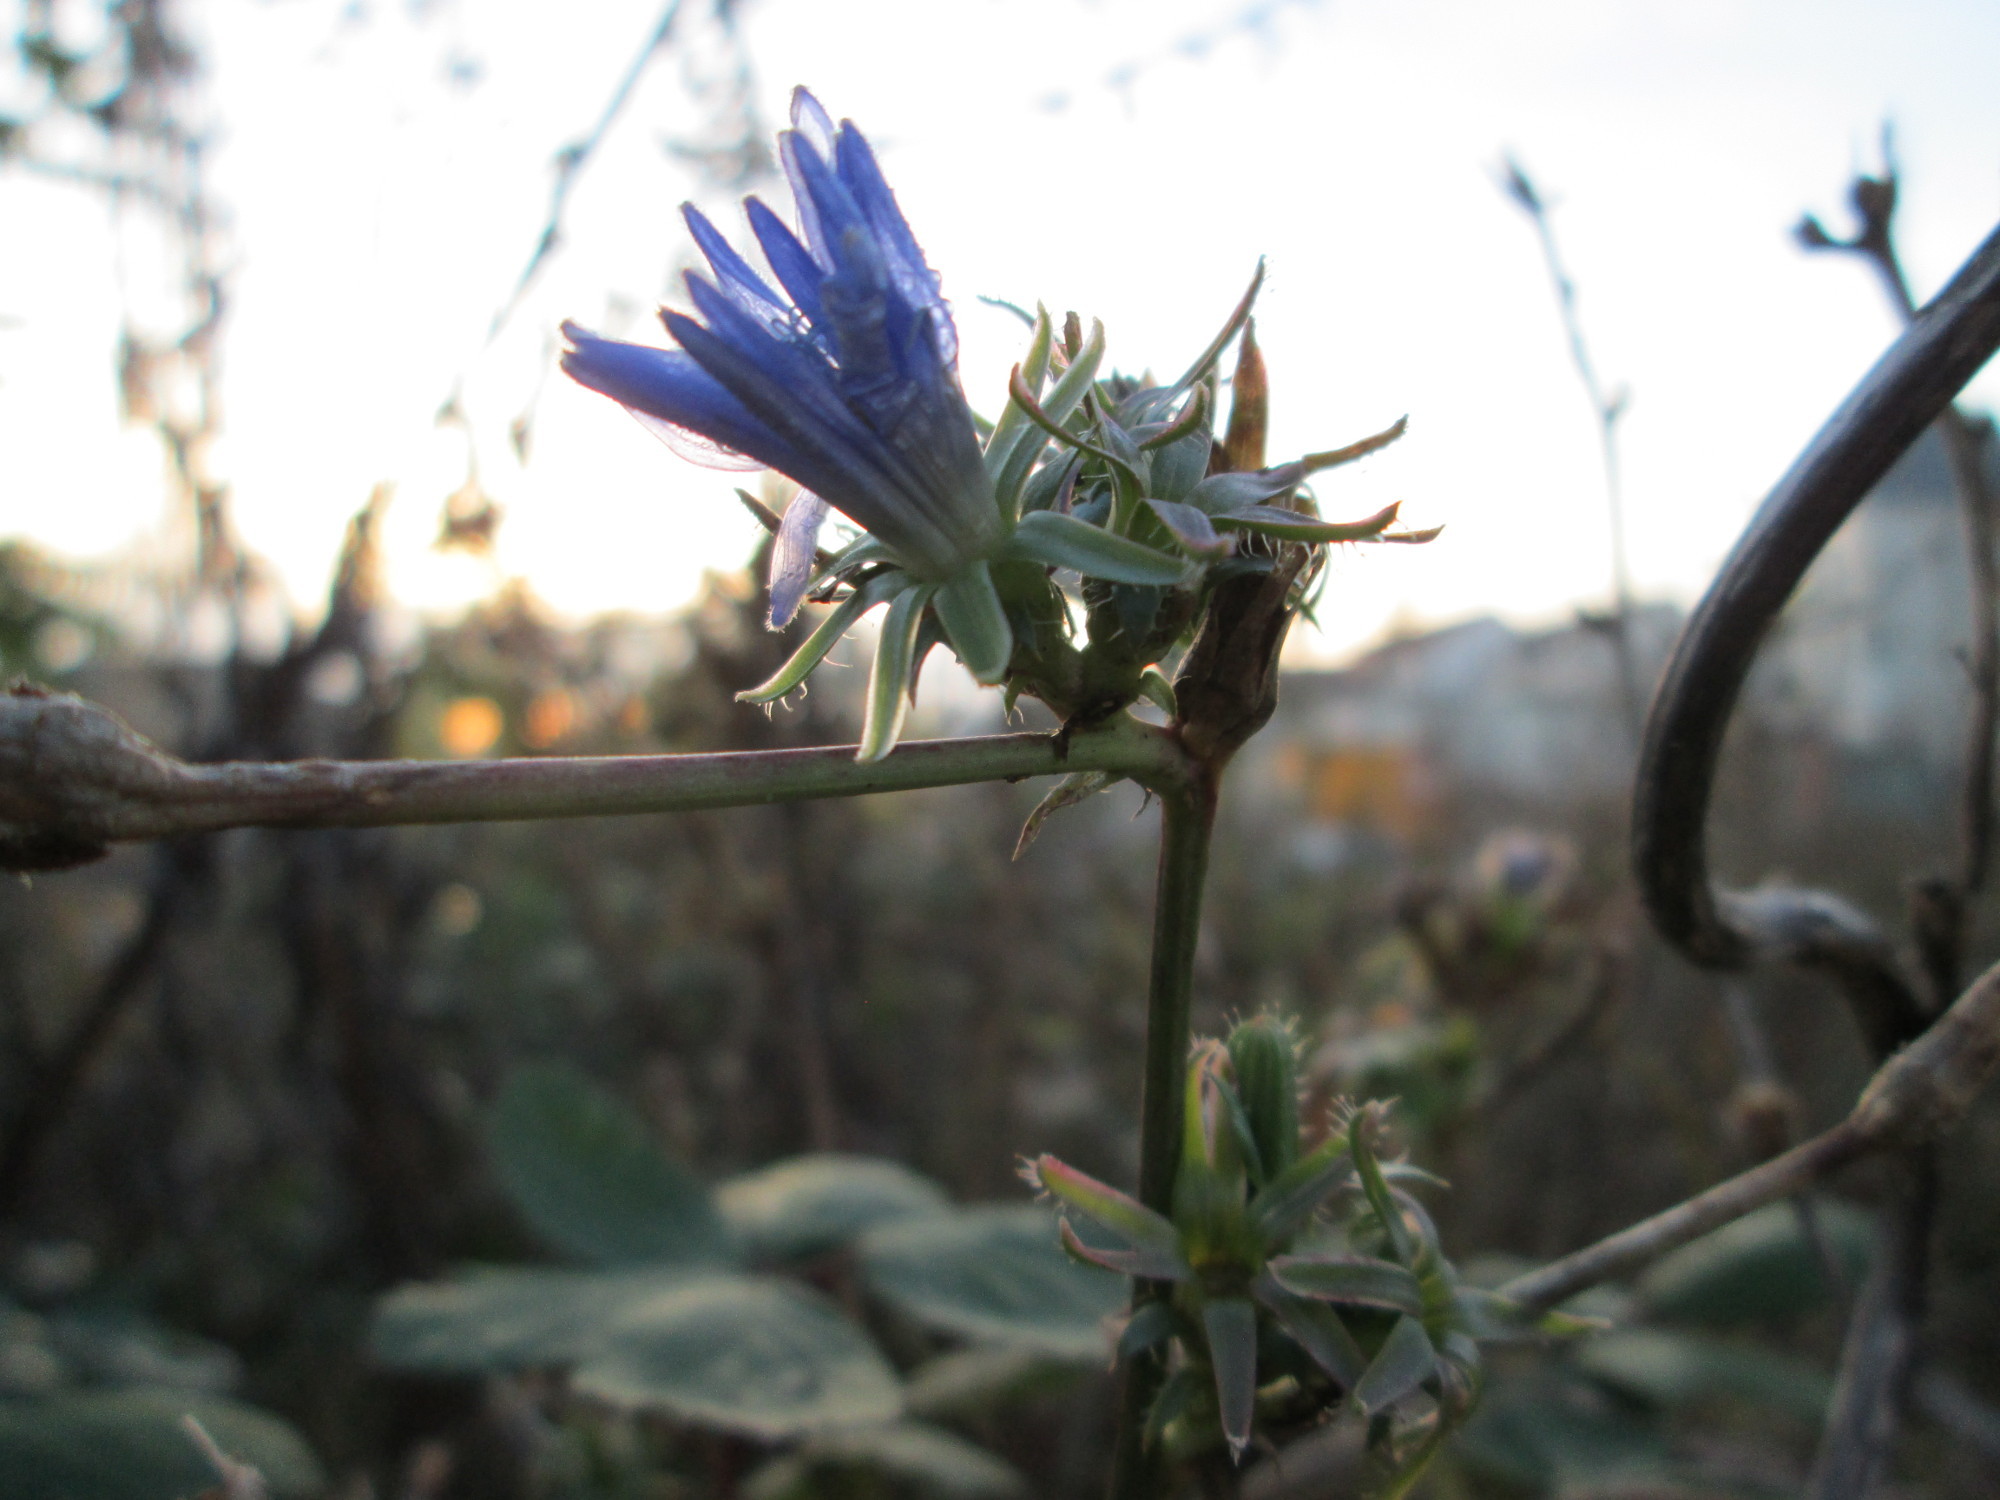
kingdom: Plantae
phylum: Tracheophyta
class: Magnoliopsida
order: Asterales
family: Asteraceae
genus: Cichorium
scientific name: Cichorium intybus
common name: Chicory
